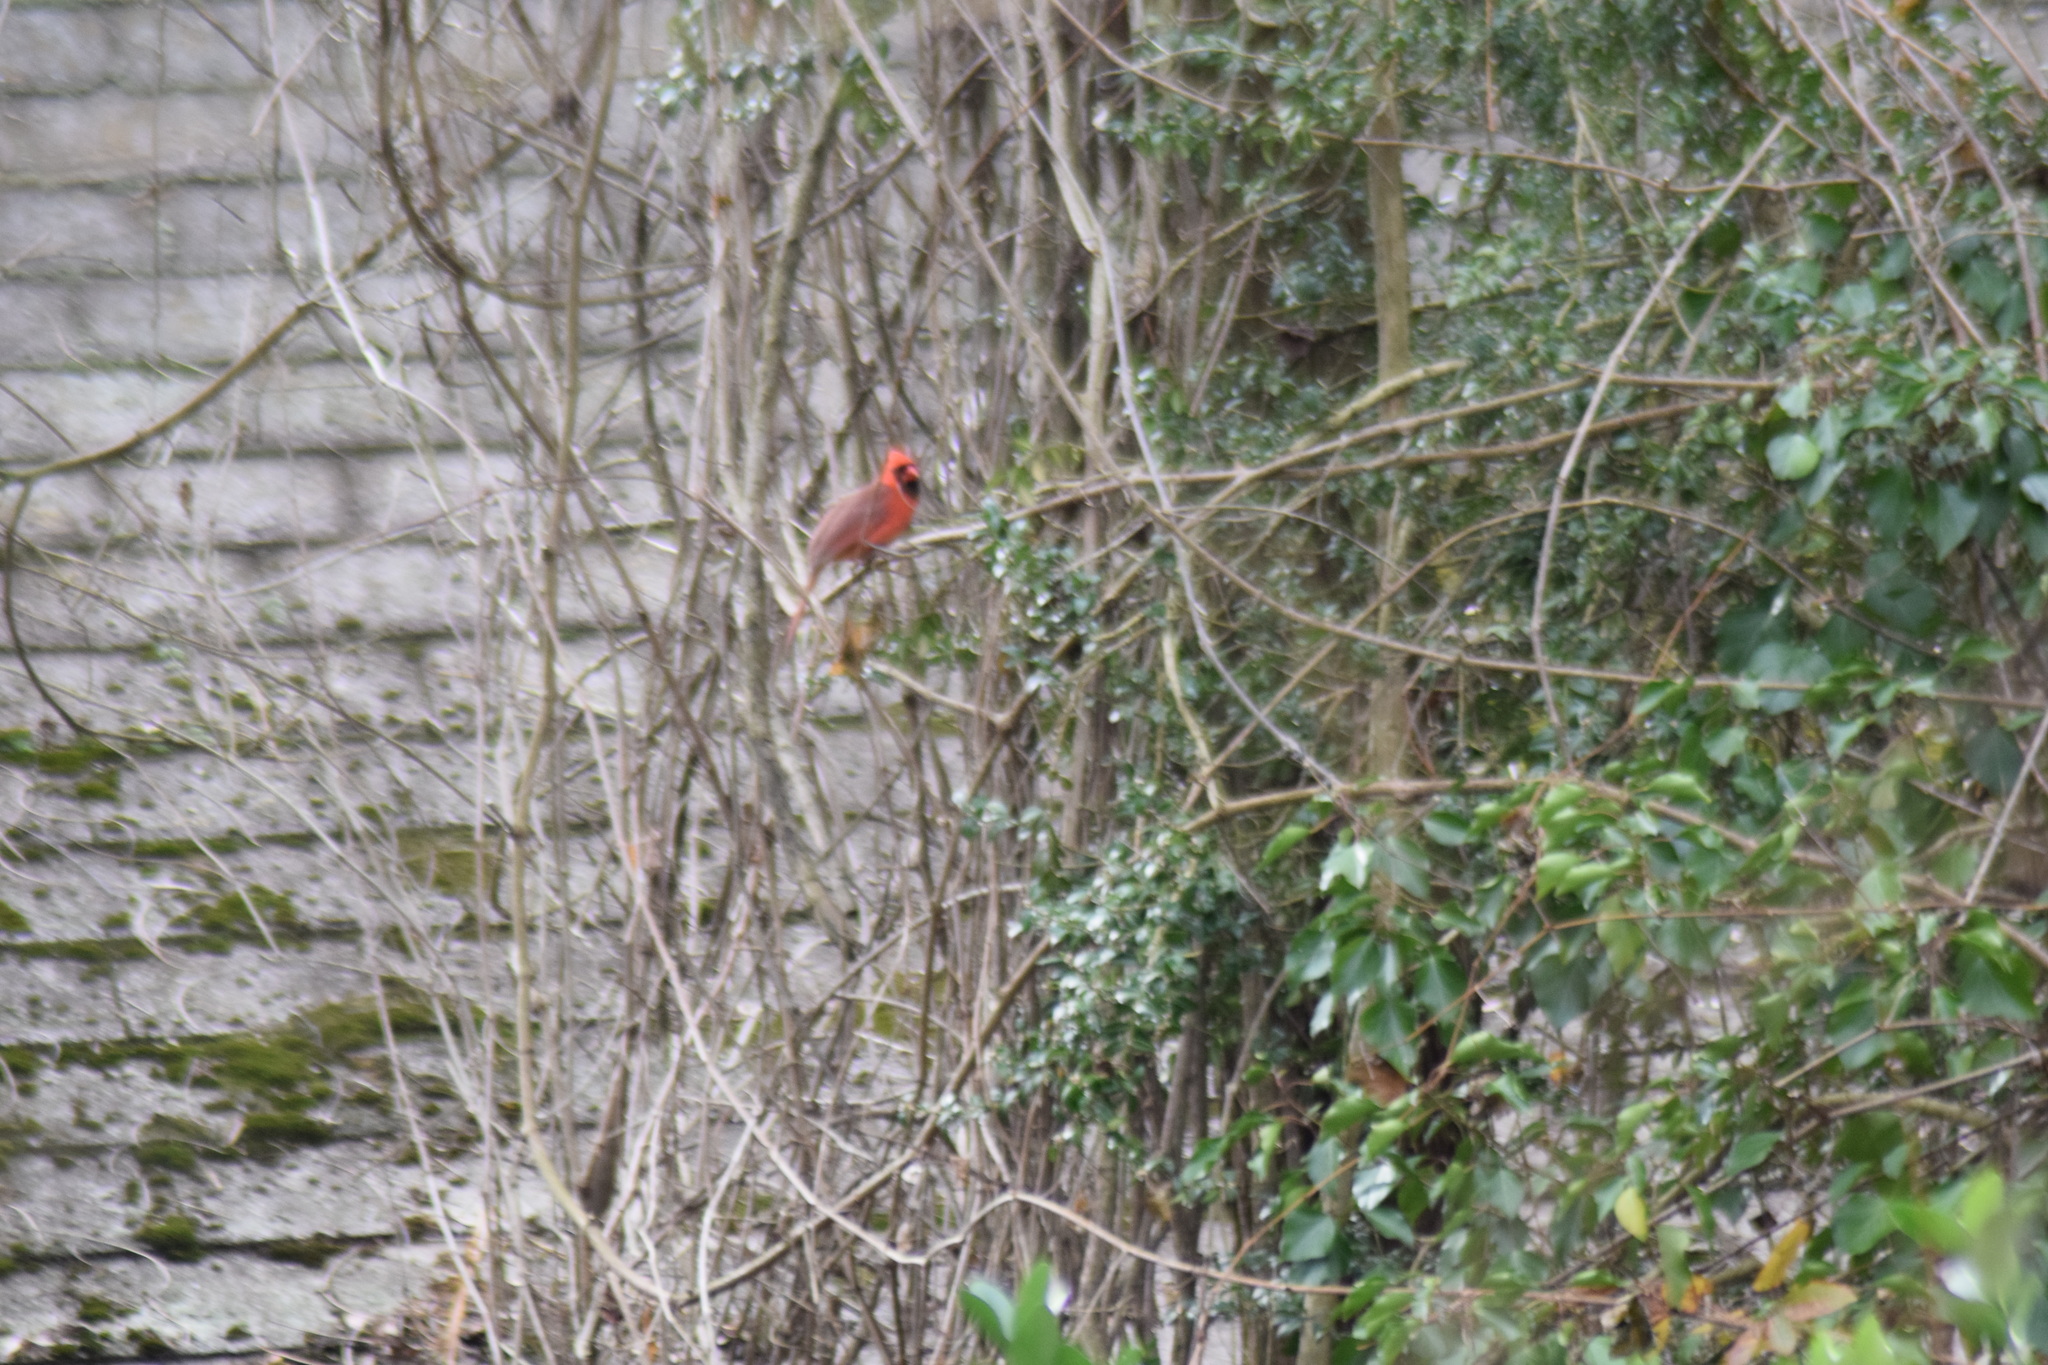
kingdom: Animalia
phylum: Chordata
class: Aves
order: Passeriformes
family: Cardinalidae
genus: Cardinalis
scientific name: Cardinalis cardinalis
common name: Northern cardinal
